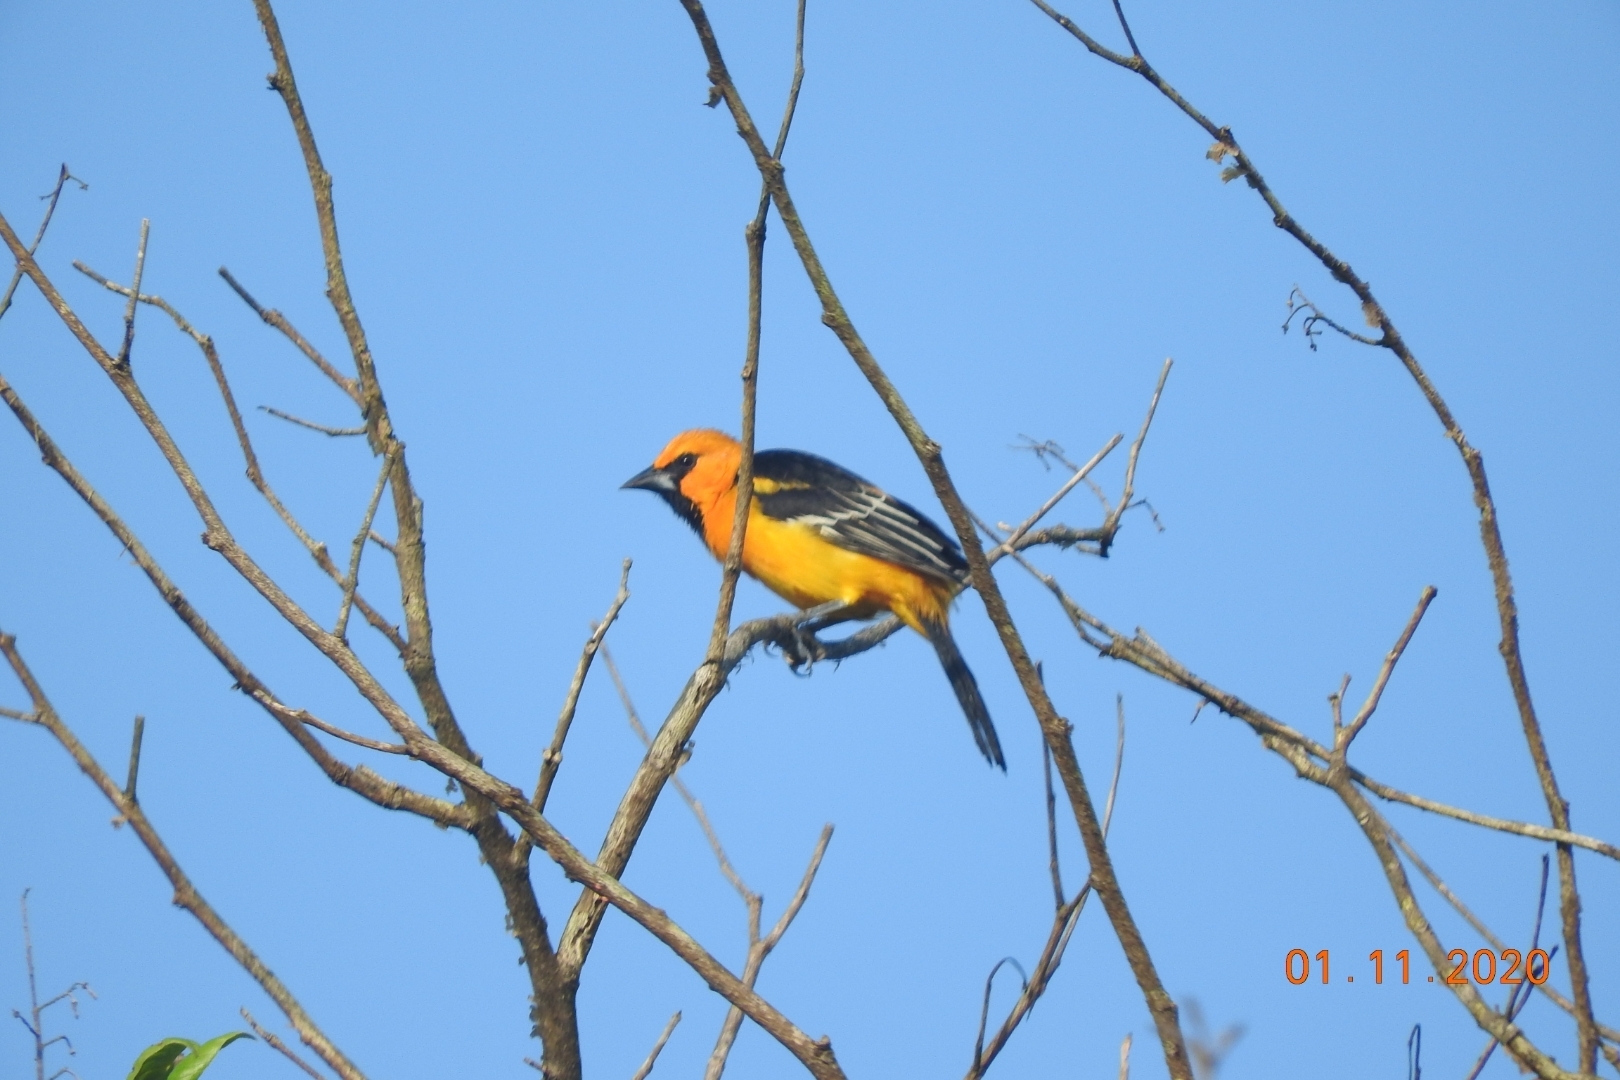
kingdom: Animalia
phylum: Chordata
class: Aves
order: Passeriformes
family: Icteridae
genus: Icterus
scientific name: Icterus gularis
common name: Altamira oriole
